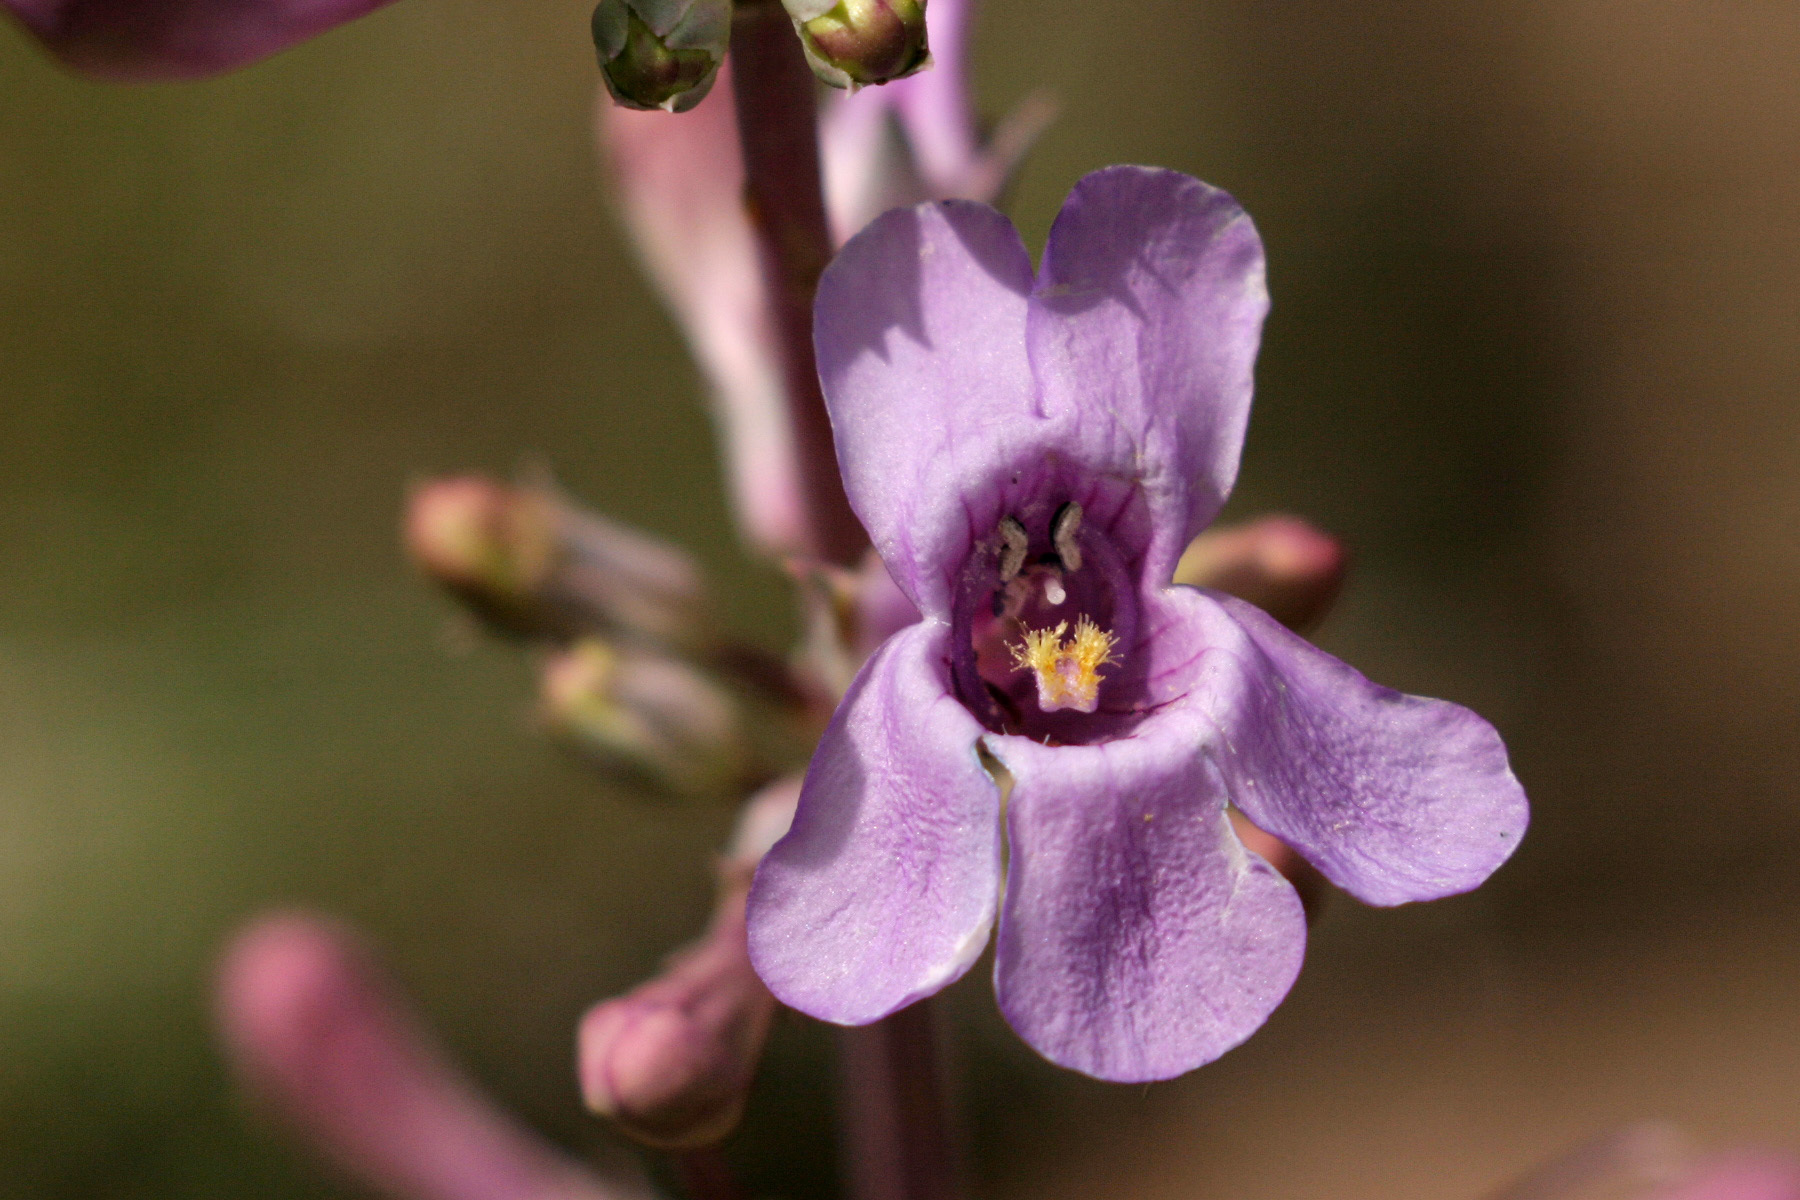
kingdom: Plantae
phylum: Tracheophyta
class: Magnoliopsida
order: Lamiales
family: Plantaginaceae
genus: Penstemon
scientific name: Penstemon fendleri
